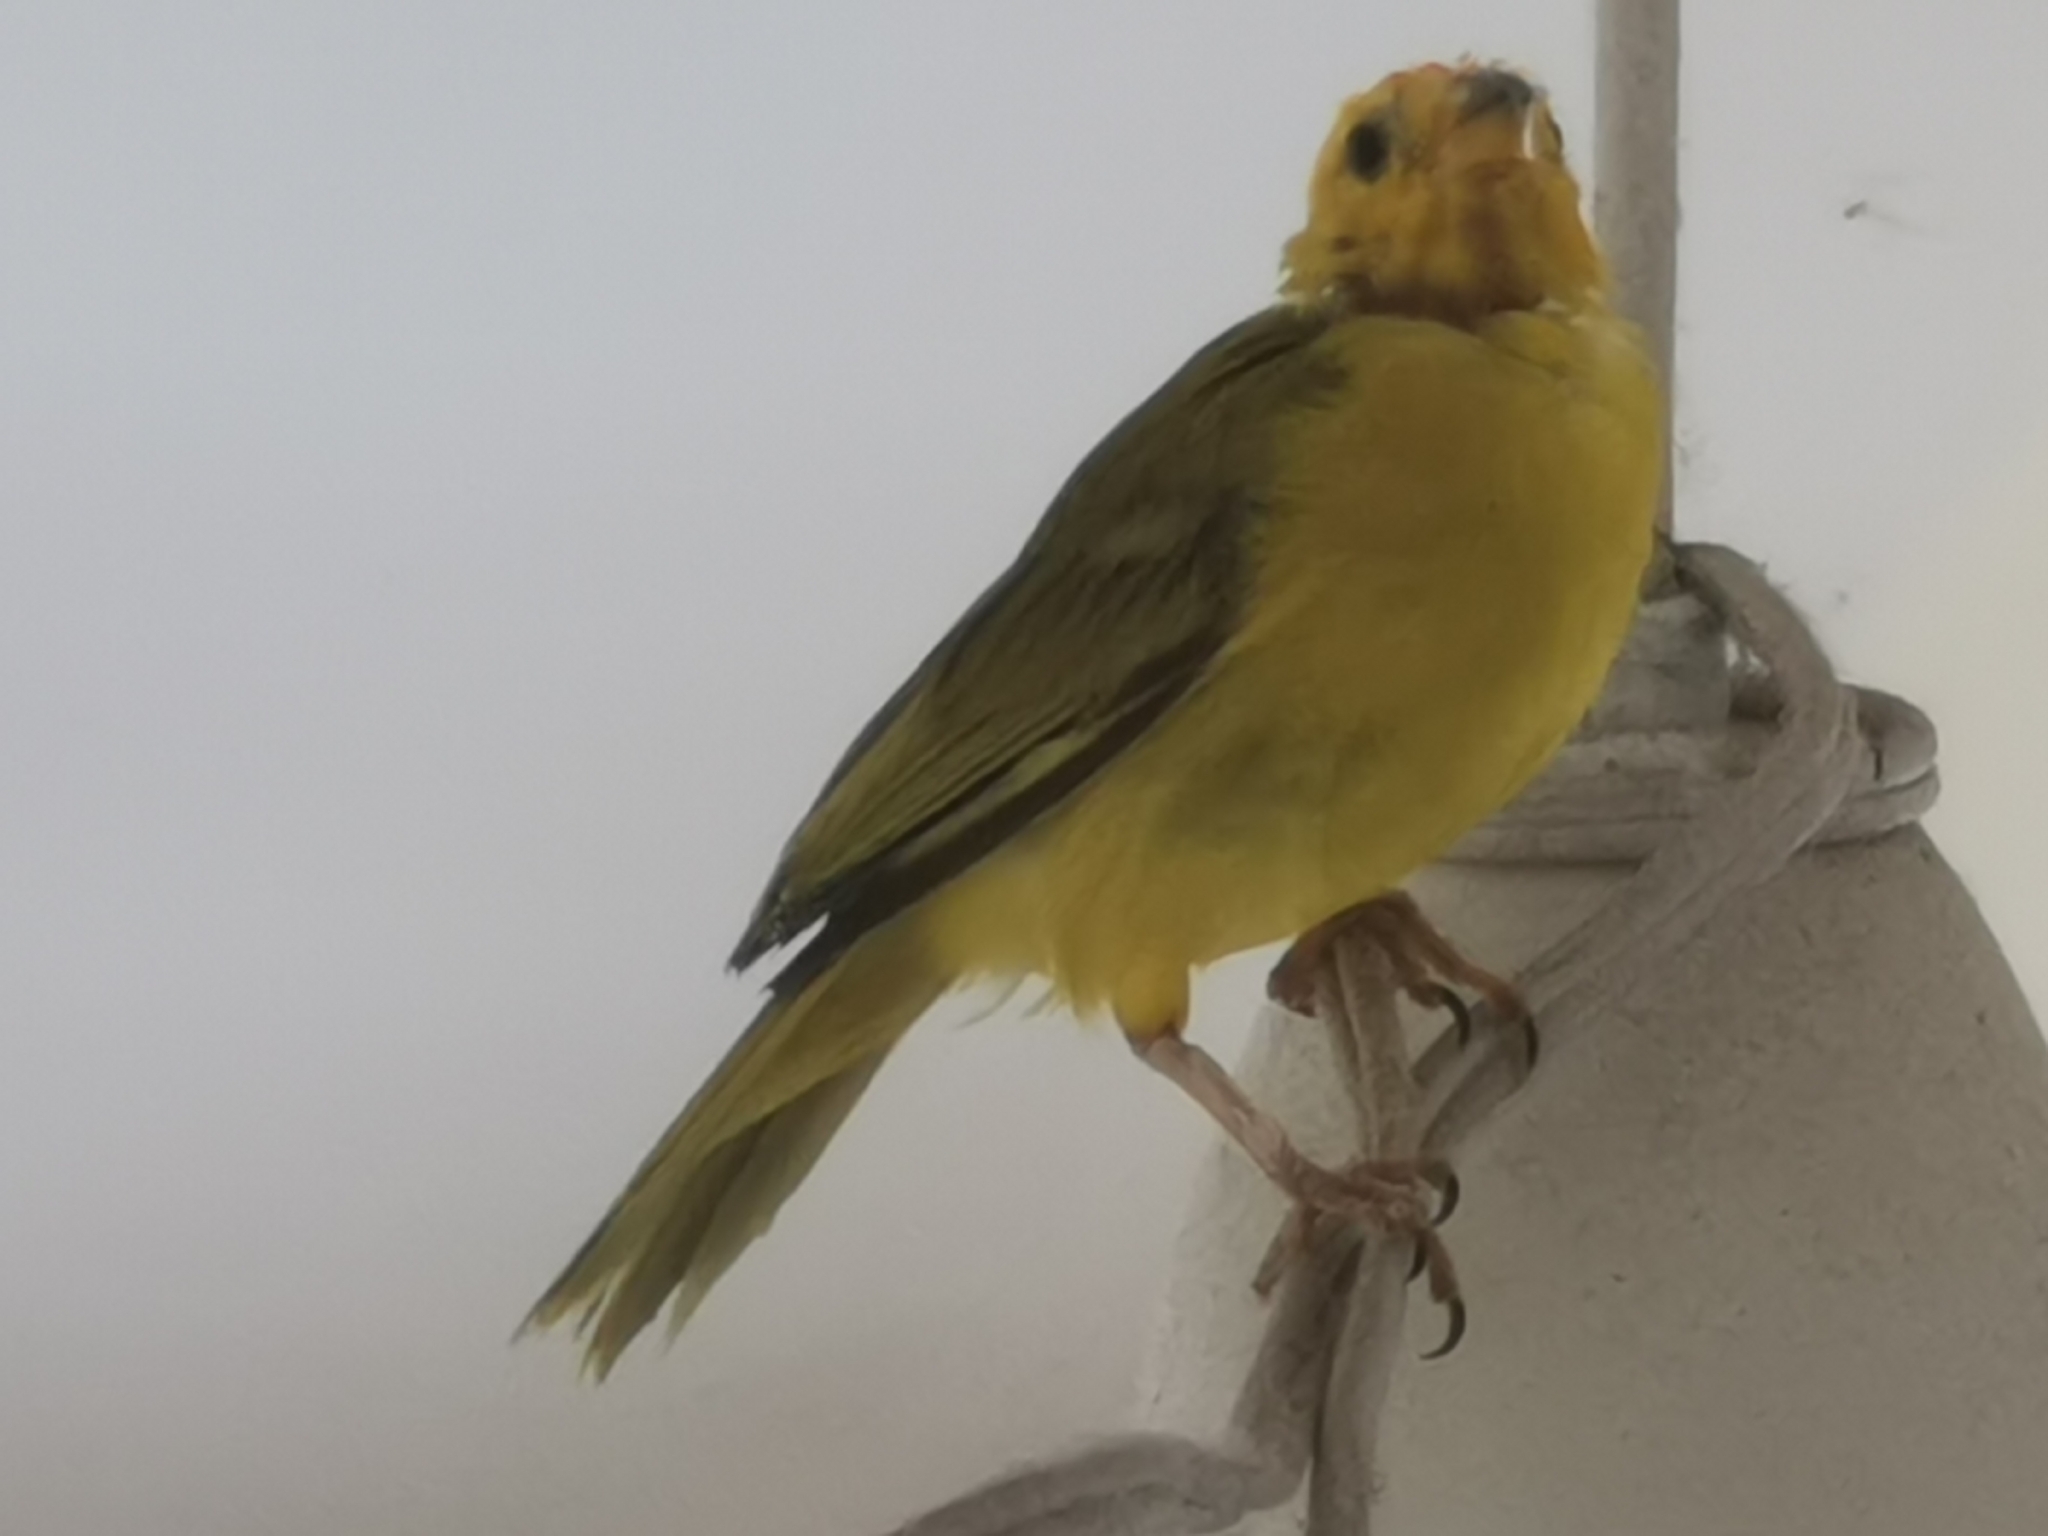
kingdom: Animalia
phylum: Chordata
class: Aves
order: Passeriformes
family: Thraupidae
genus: Sicalis
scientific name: Sicalis flaveola
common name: Saffron finch
